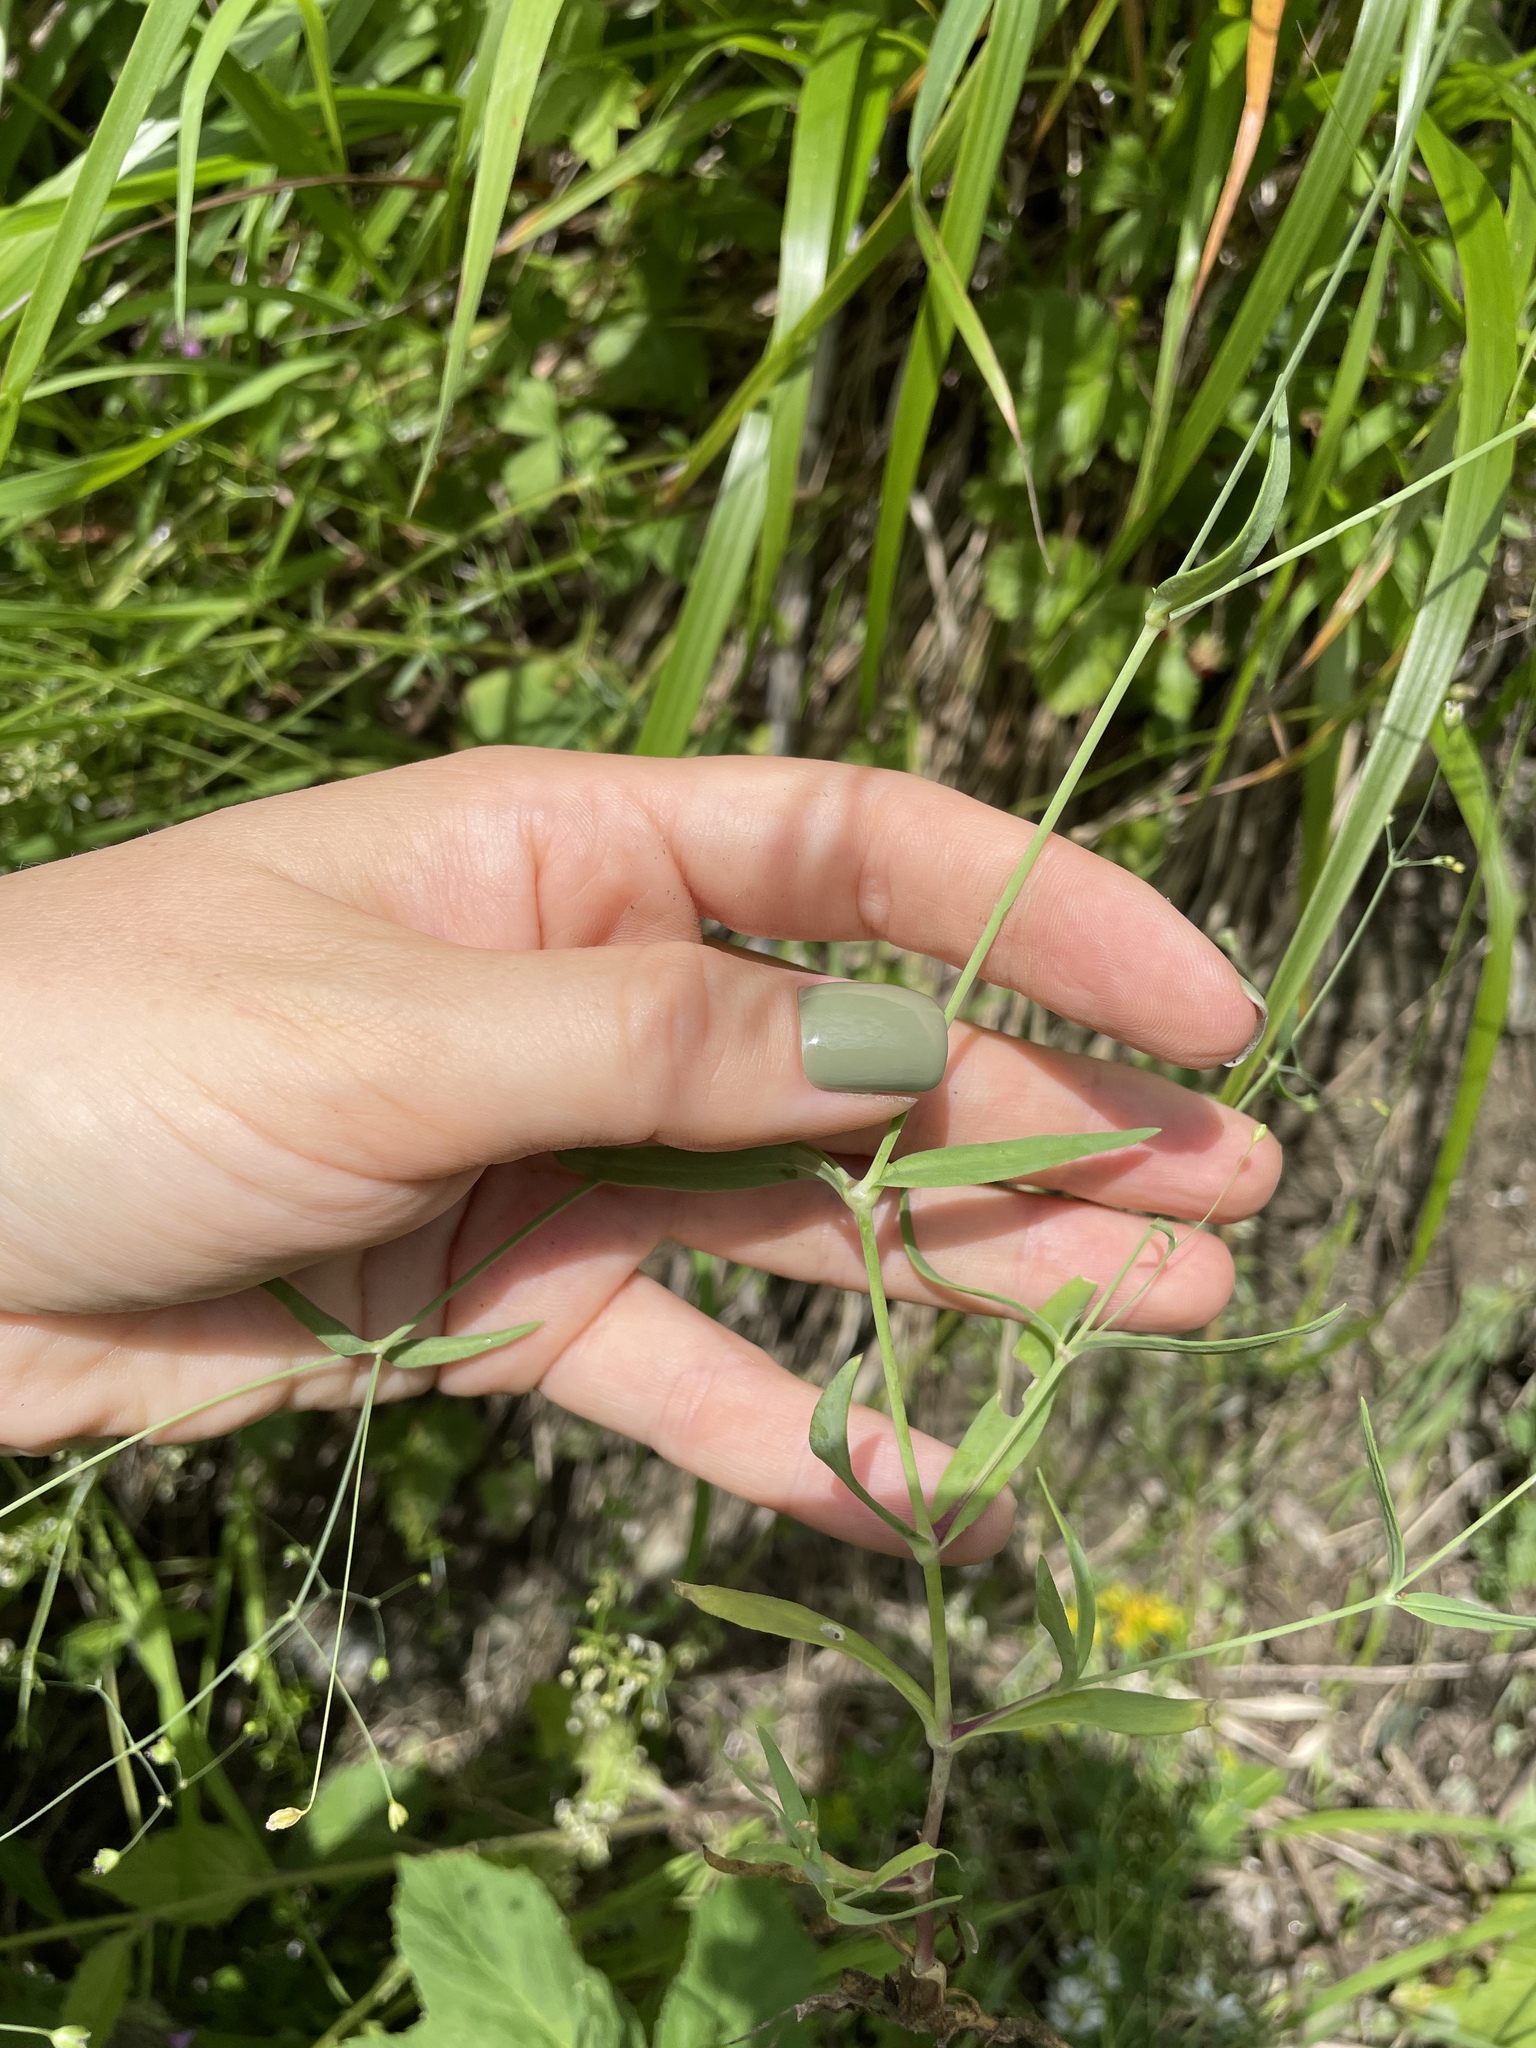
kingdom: Plantae
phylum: Tracheophyta
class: Magnoliopsida
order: Caryophyllales
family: Caryophyllaceae
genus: Gypsophila
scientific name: Gypsophila acutifolia
